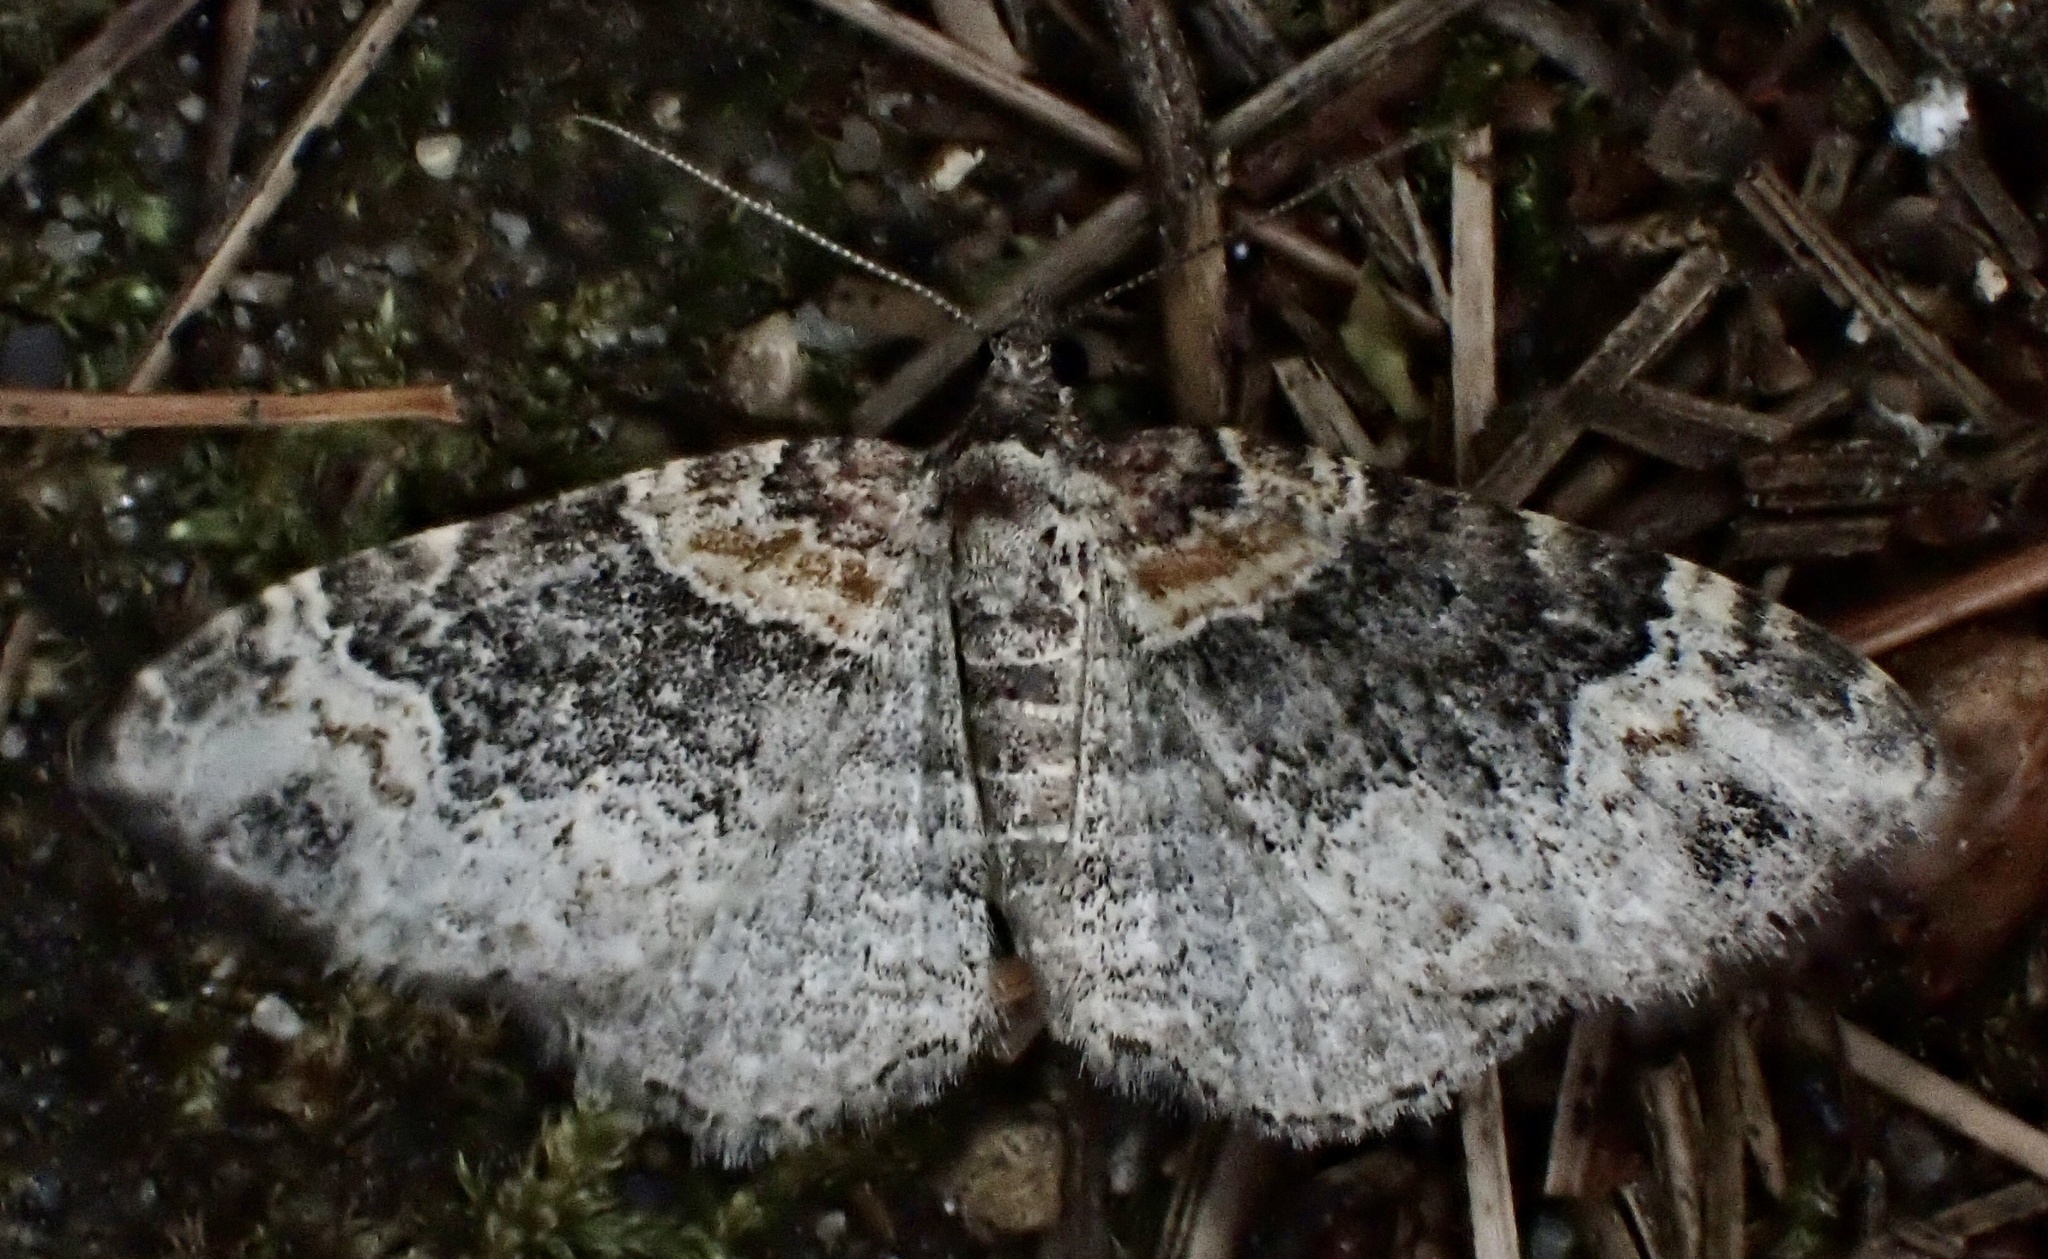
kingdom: Animalia
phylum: Arthropoda
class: Insecta
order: Lepidoptera
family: Geometridae
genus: Xanthorhoe
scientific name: Xanthorhoe ferrugata
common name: Dark-barred twin-spot carpet
